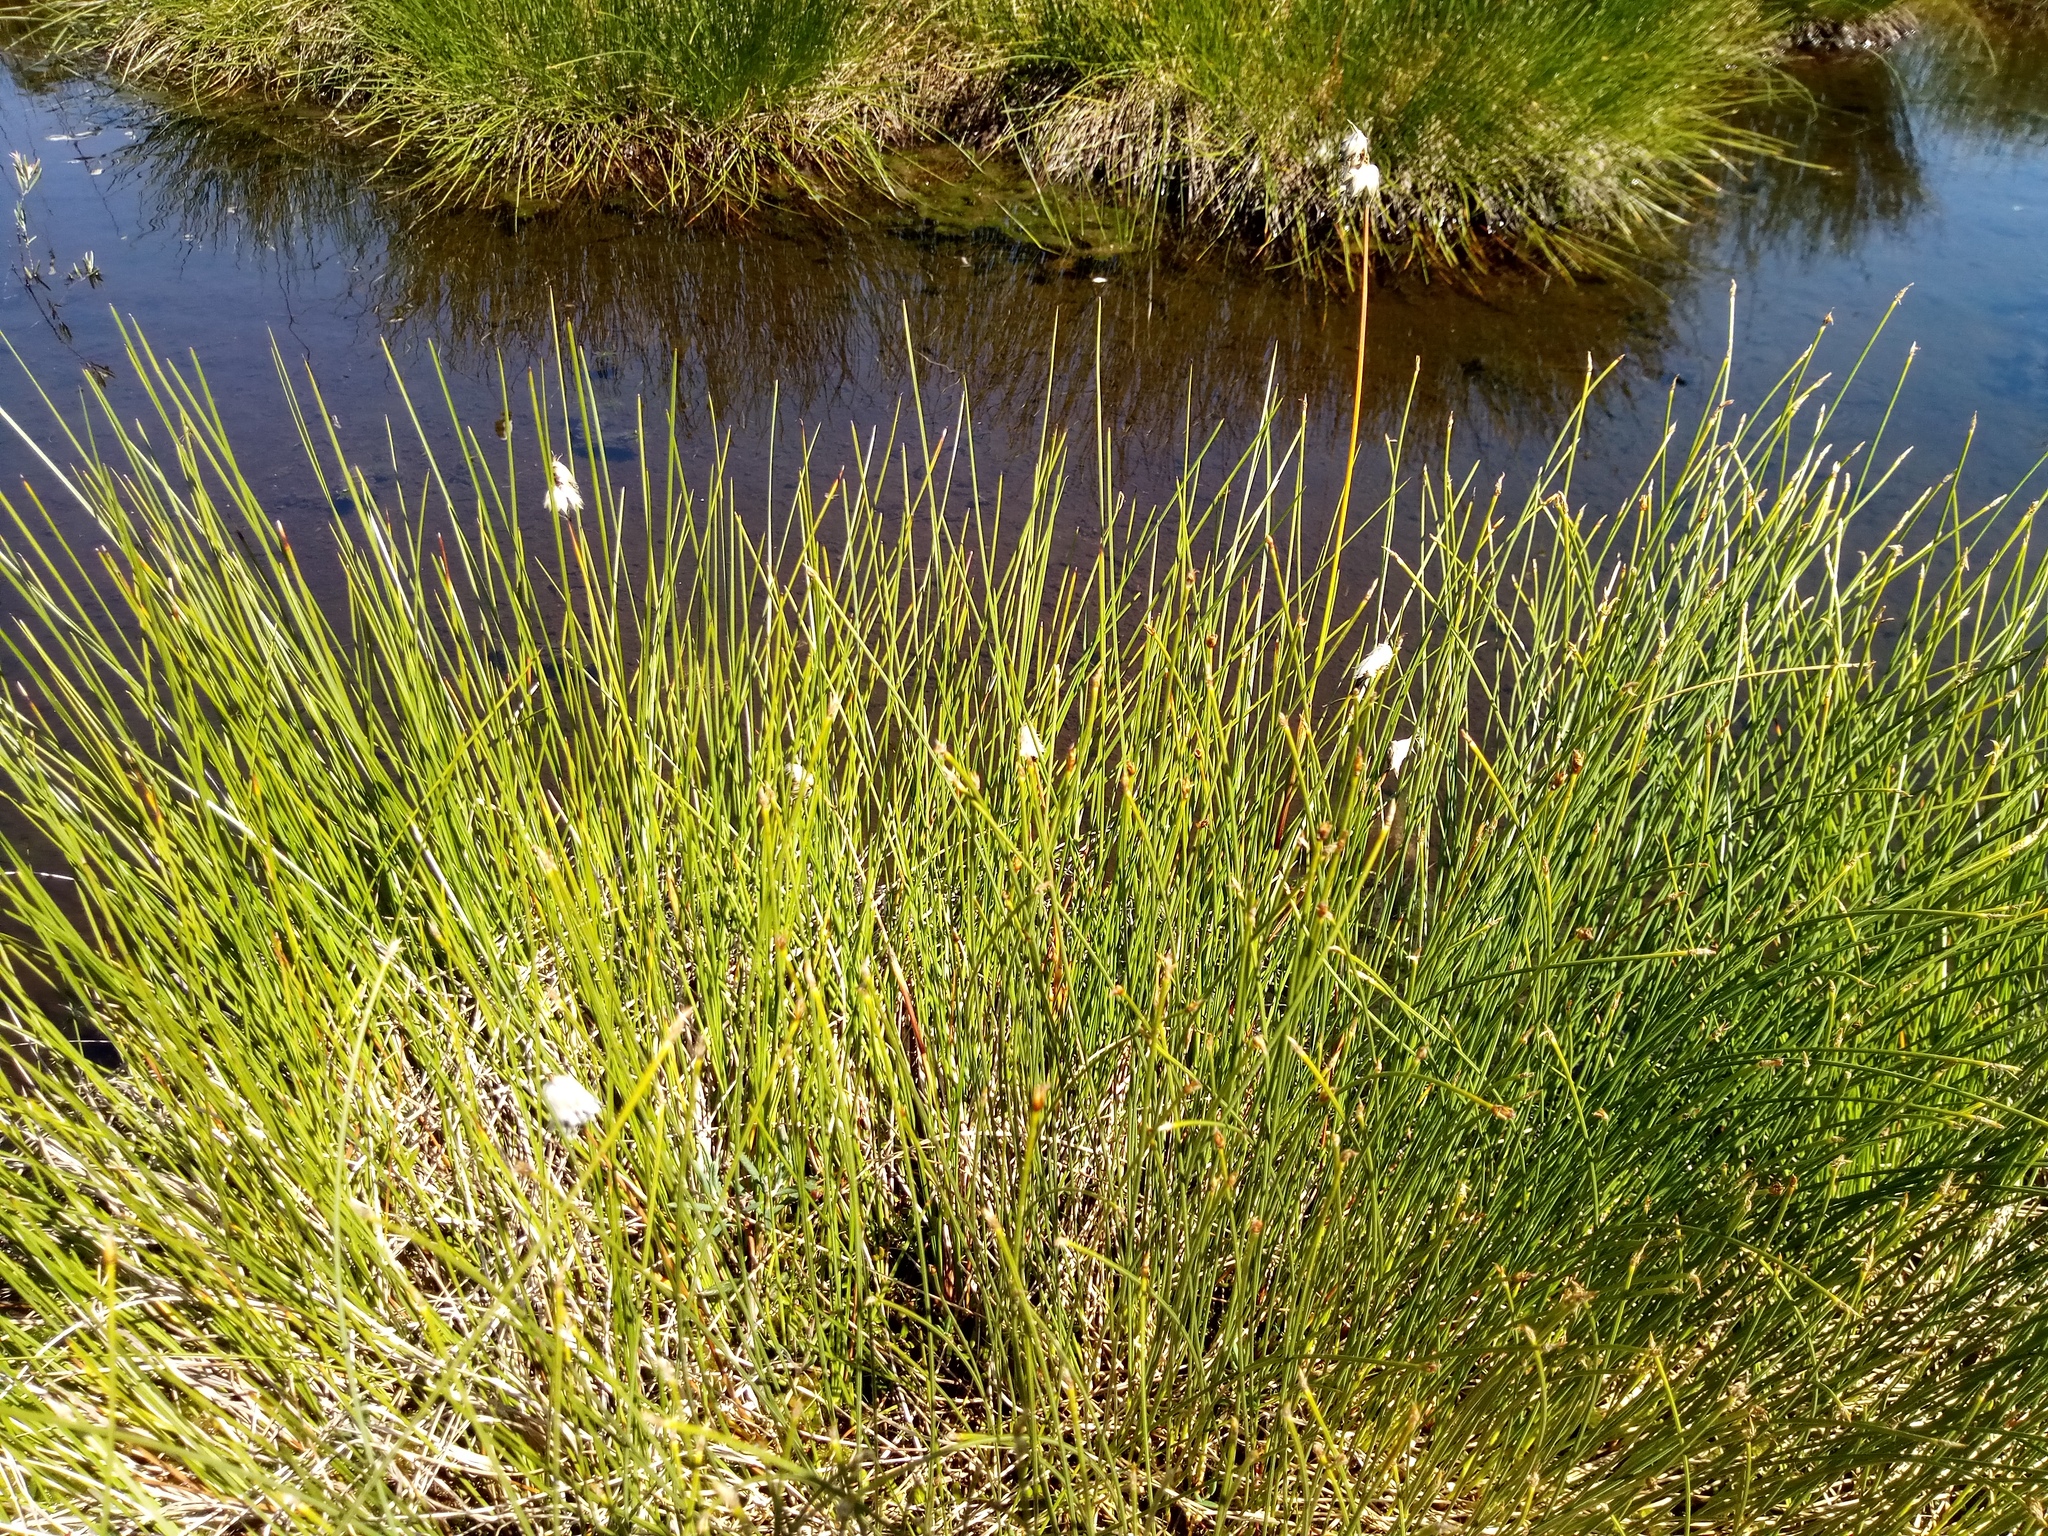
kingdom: Plantae
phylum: Tracheophyta
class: Liliopsida
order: Poales
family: Cyperaceae
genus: Trichophorum
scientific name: Trichophorum cespitosum
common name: Cespitose bulrush
